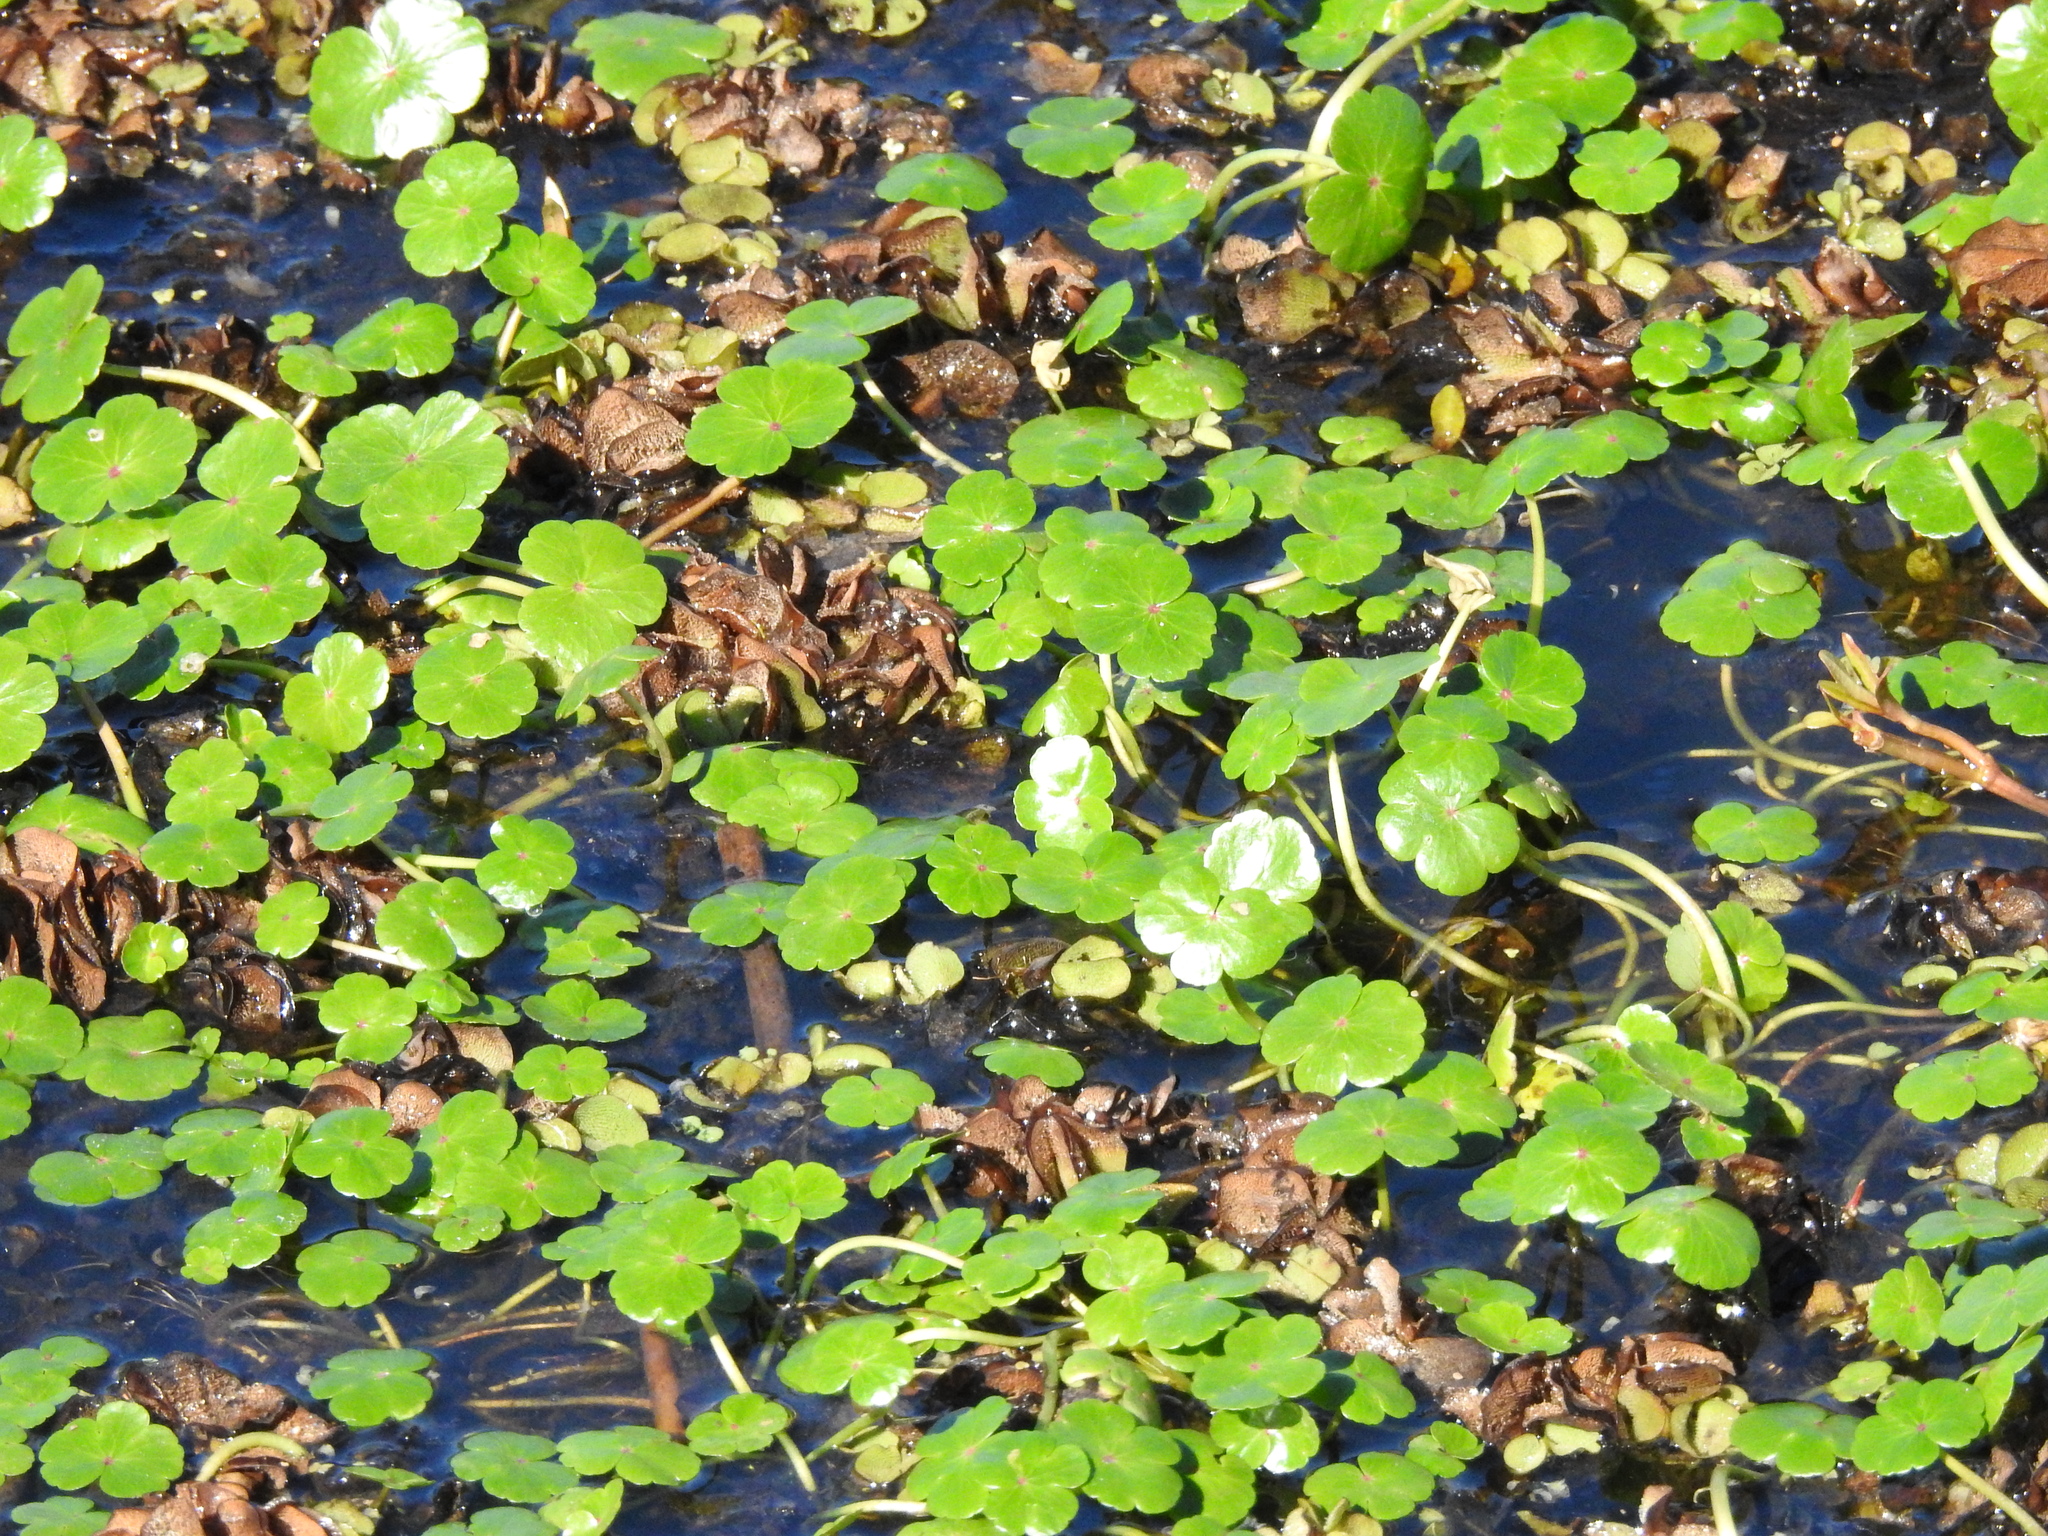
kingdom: Plantae
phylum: Tracheophyta
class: Magnoliopsida
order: Apiales
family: Araliaceae
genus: Hydrocotyle
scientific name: Hydrocotyle ranunculoides
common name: Floating pennywort
